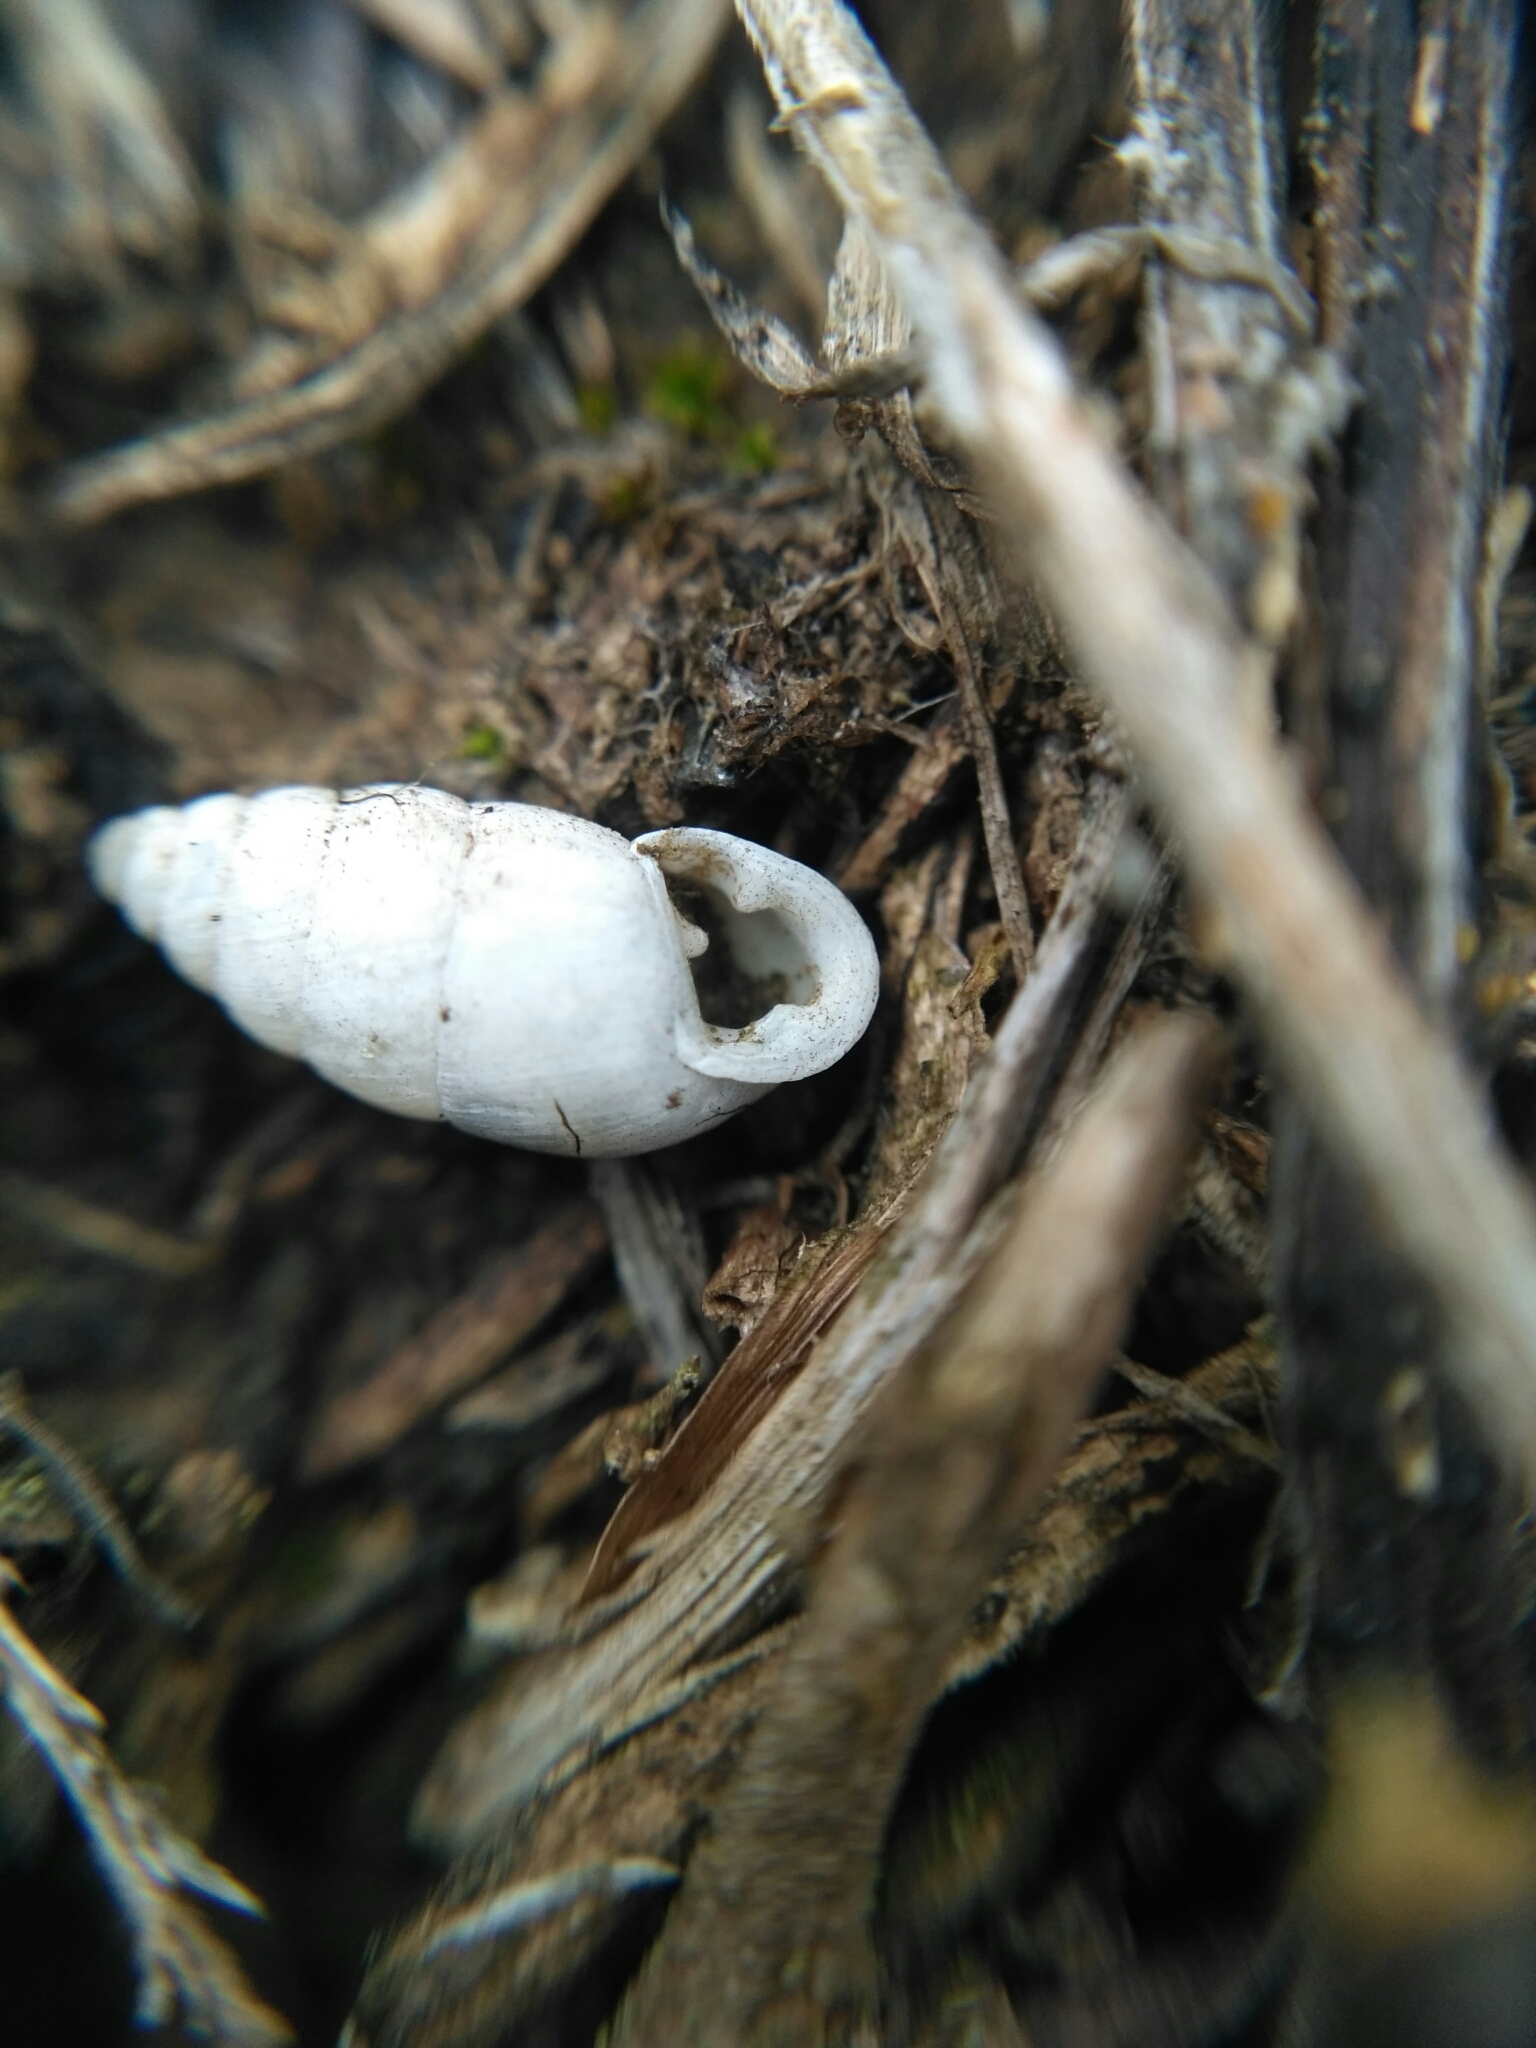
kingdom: Animalia
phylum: Mollusca
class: Gastropoda
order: Stylommatophora
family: Enidae
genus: Chondrula
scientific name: Chondrula tridens
